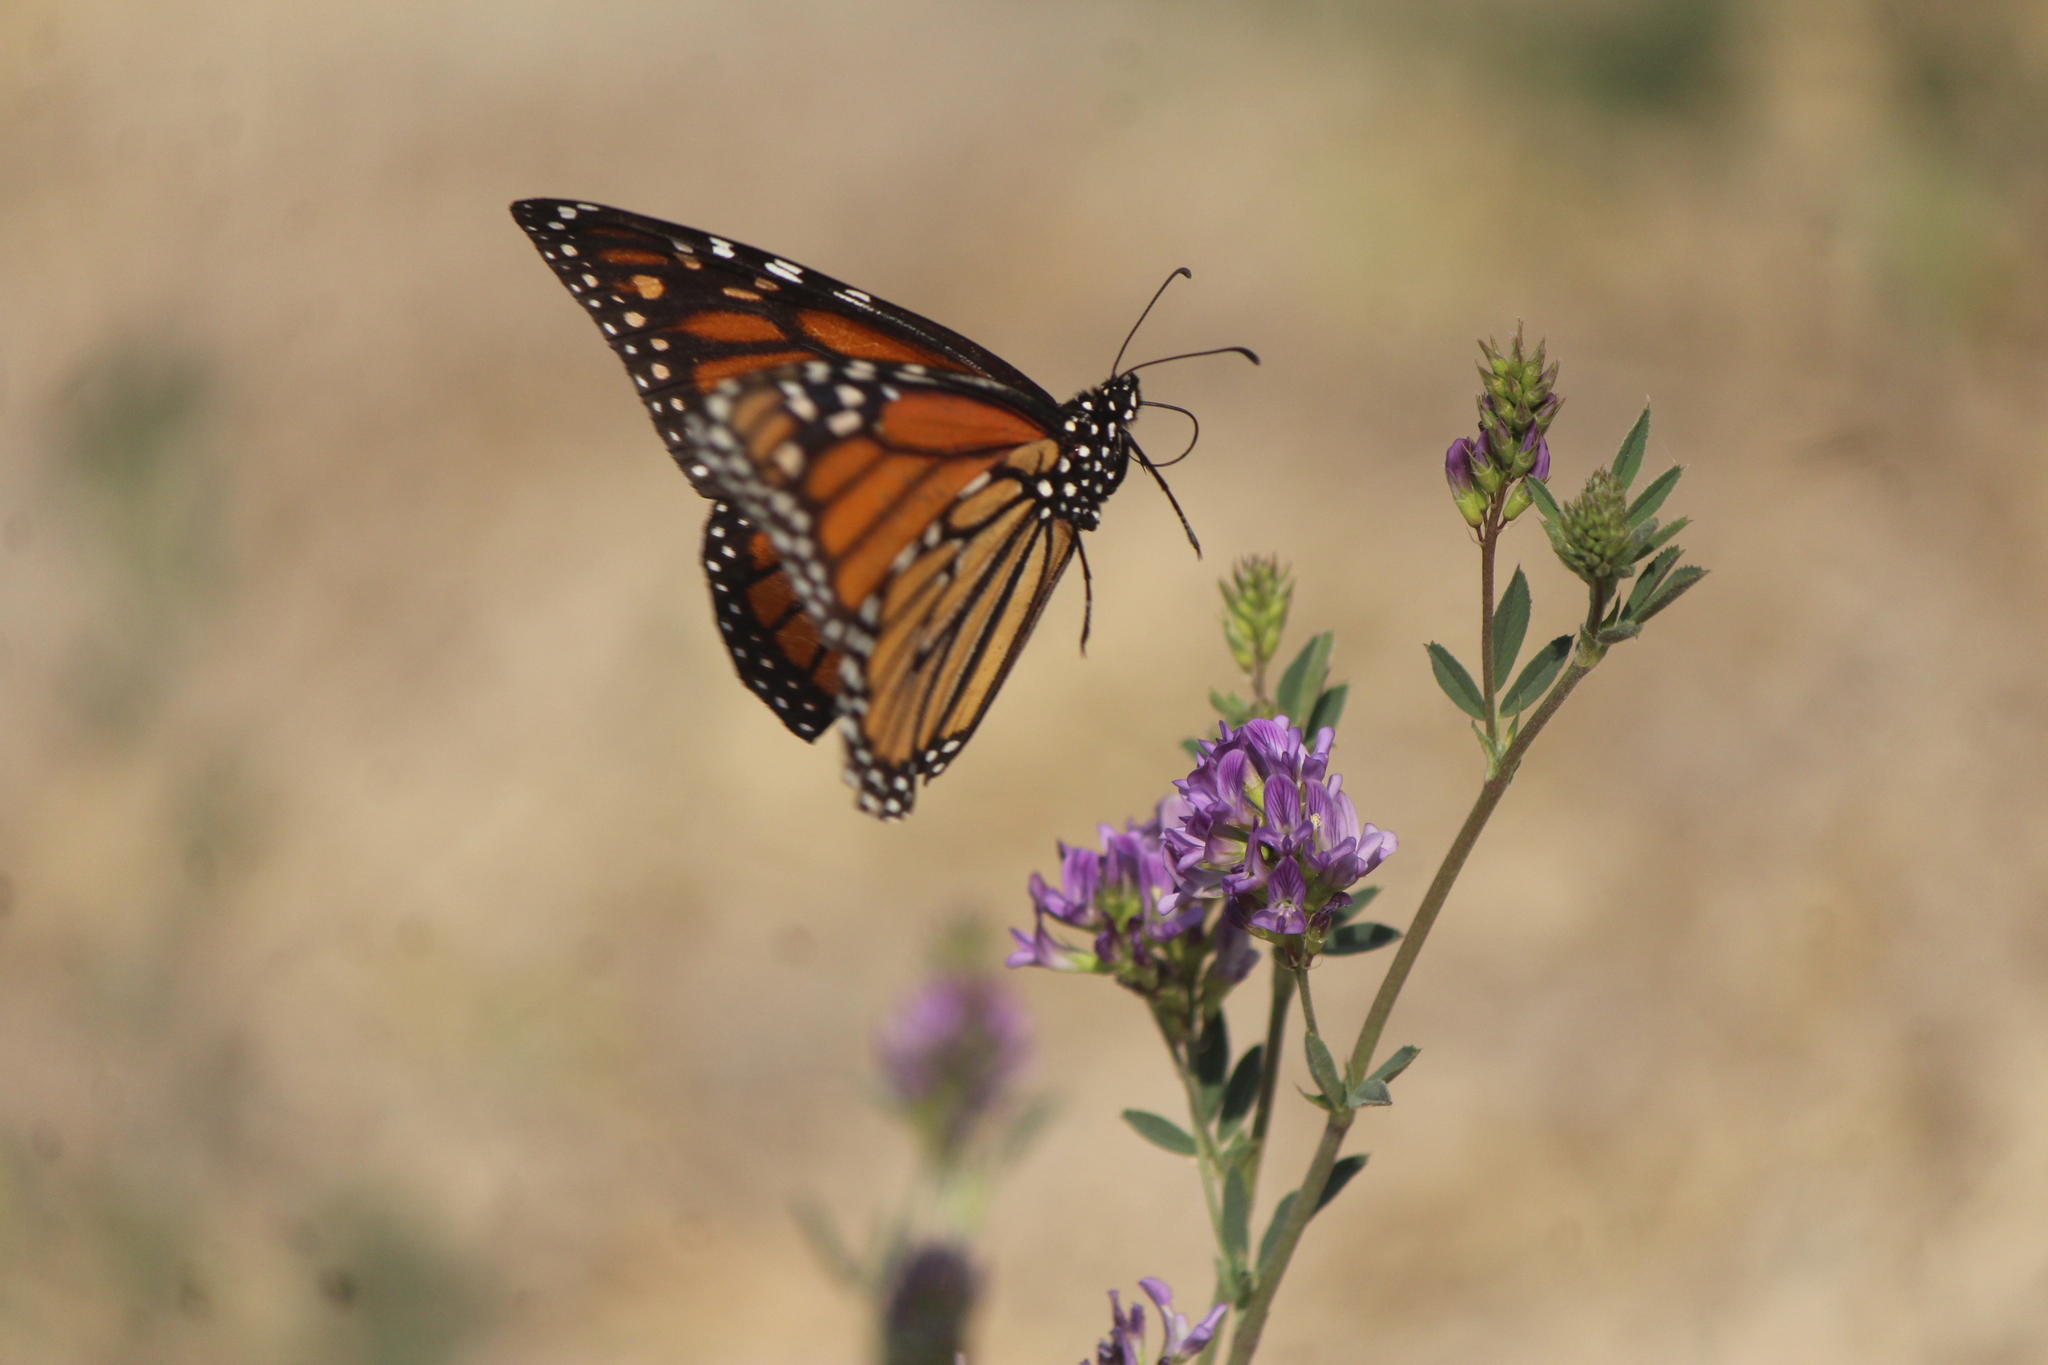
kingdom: Animalia
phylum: Arthropoda
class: Insecta
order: Lepidoptera
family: Nymphalidae
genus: Danaus
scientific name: Danaus plexippus
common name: Monarch
